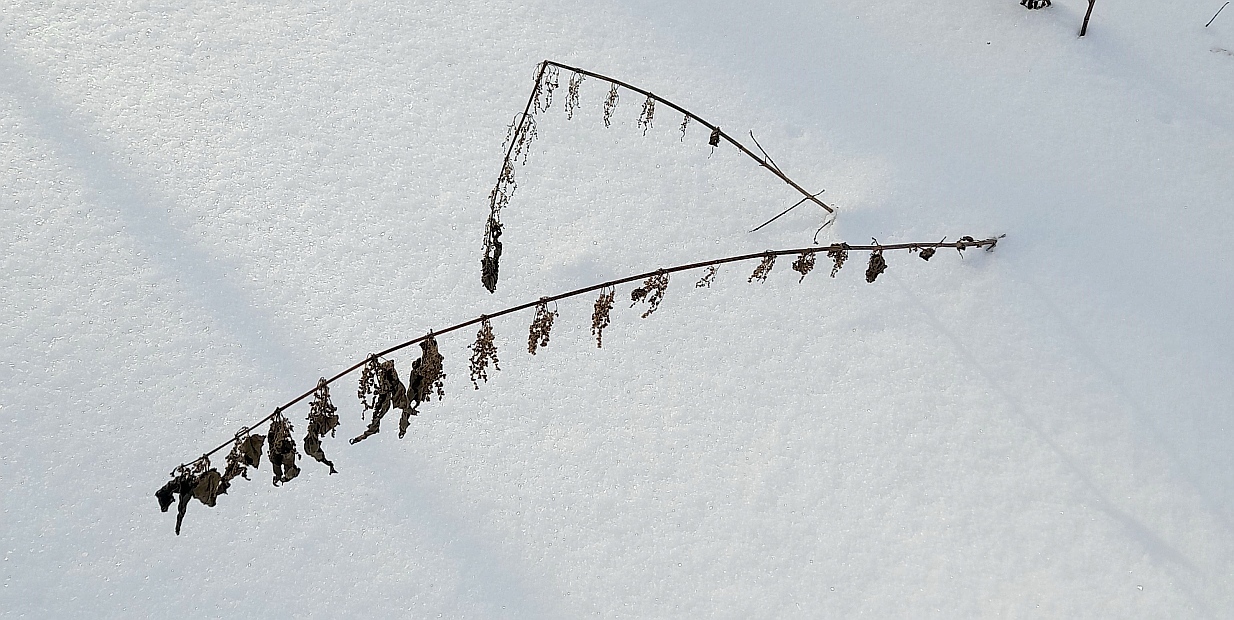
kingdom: Plantae
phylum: Tracheophyta
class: Magnoliopsida
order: Rosales
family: Urticaceae
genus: Urtica
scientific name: Urtica dioica
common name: Common nettle
